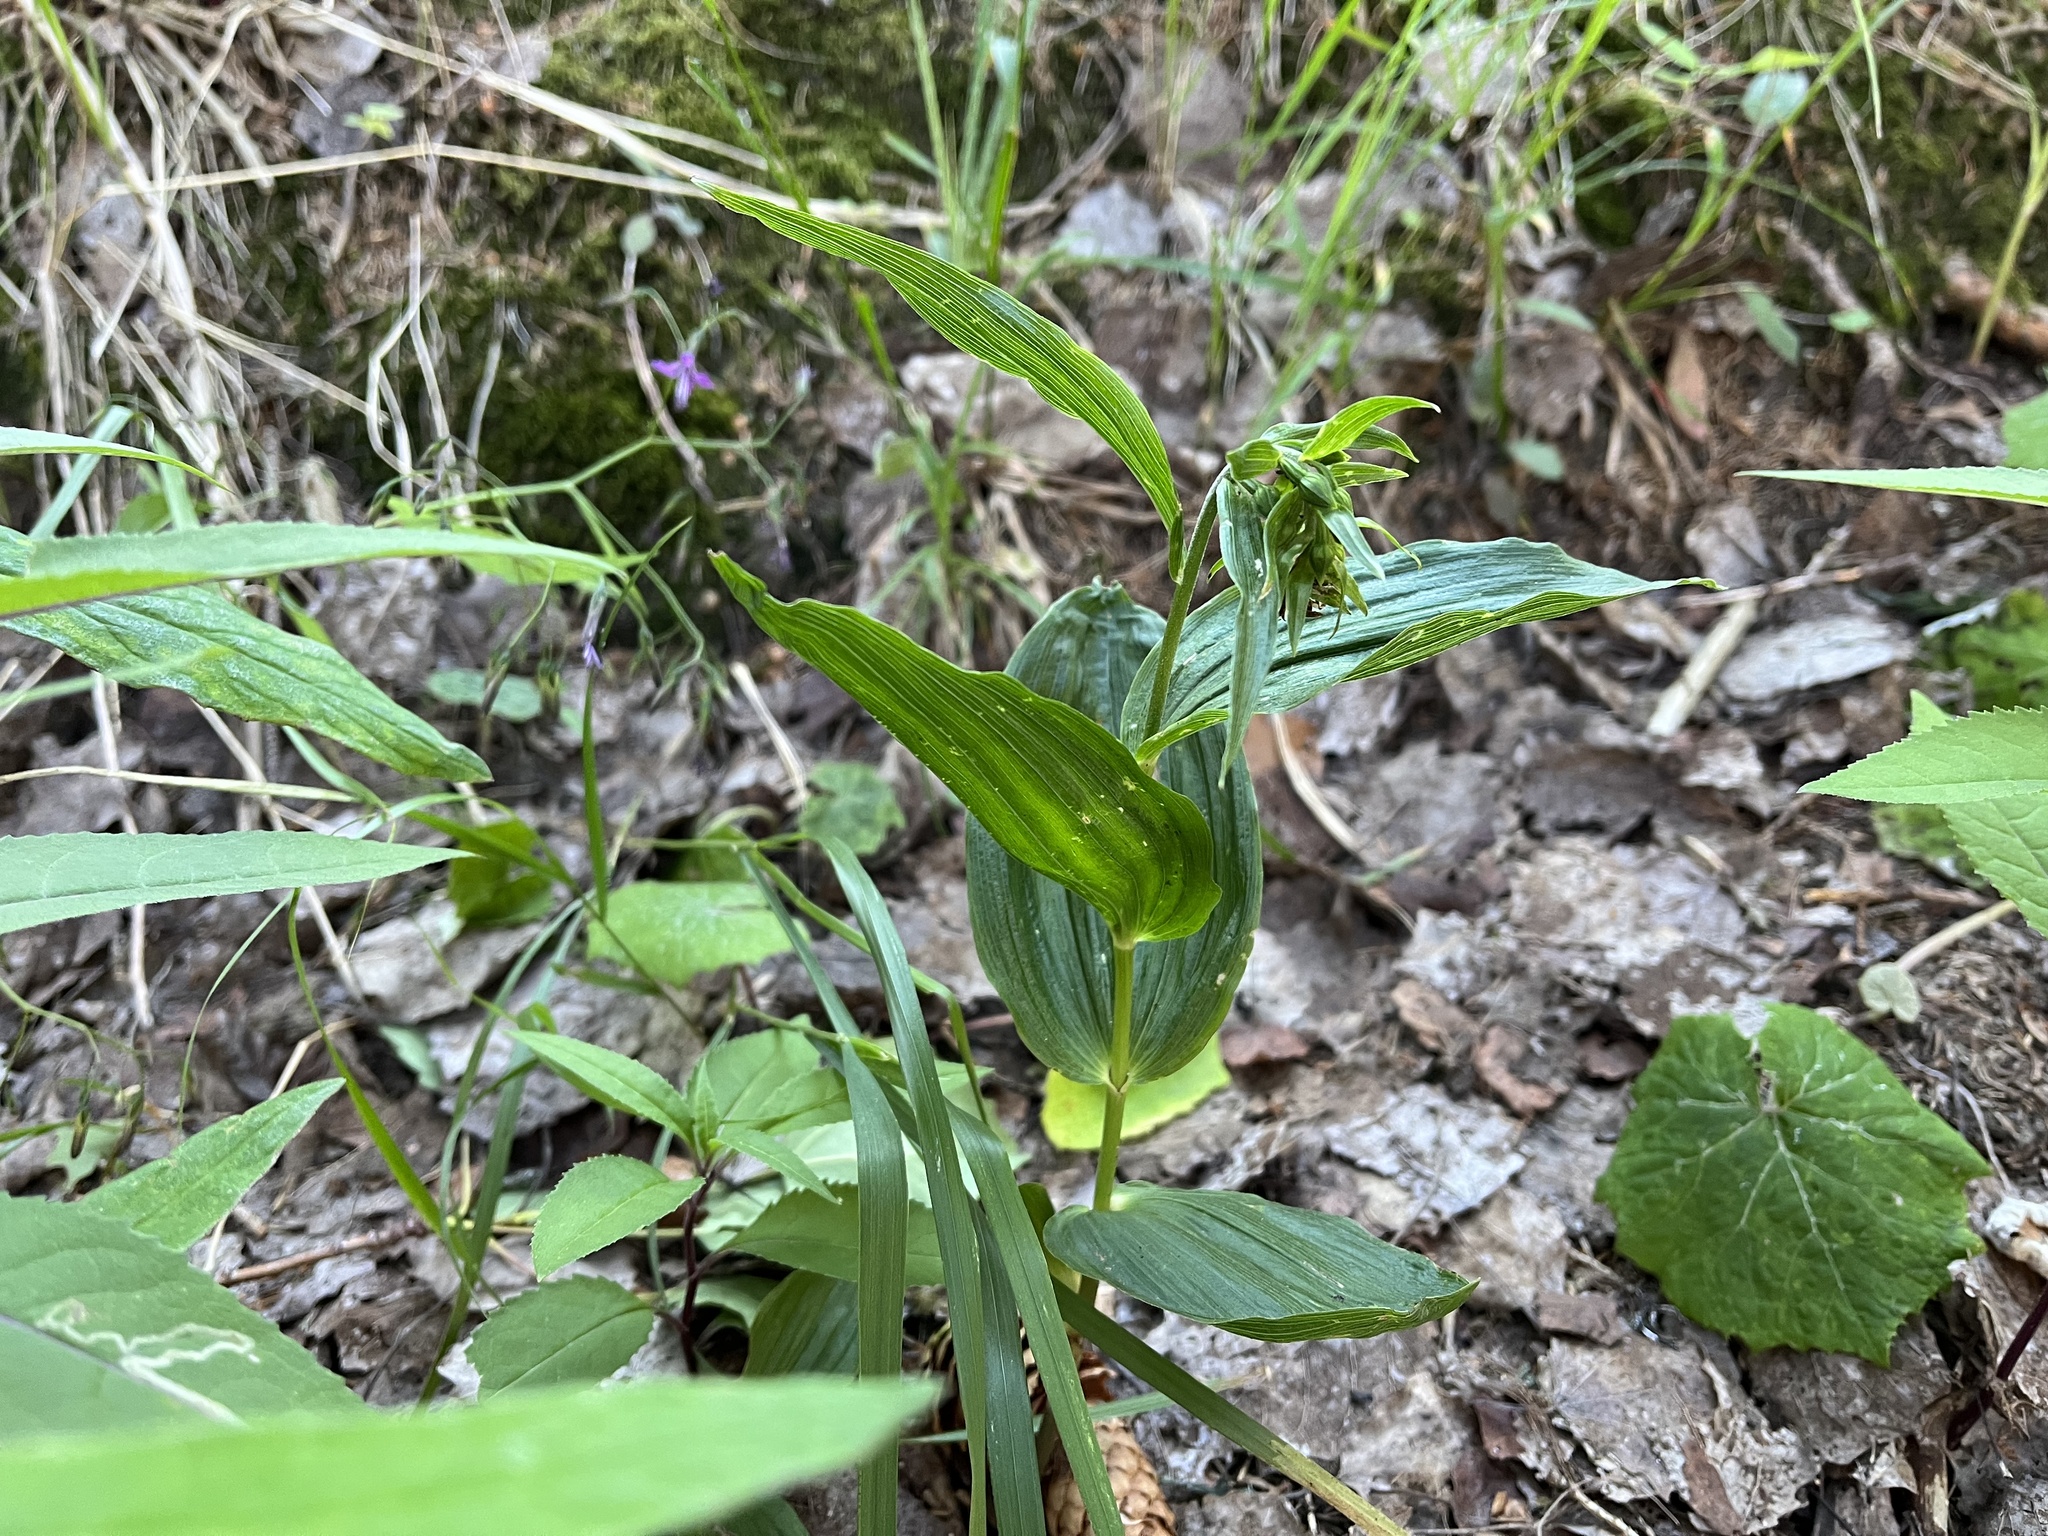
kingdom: Plantae
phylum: Tracheophyta
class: Liliopsida
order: Asparagales
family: Orchidaceae
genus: Epipactis
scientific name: Epipactis helleborine
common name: Broad-leaved helleborine
